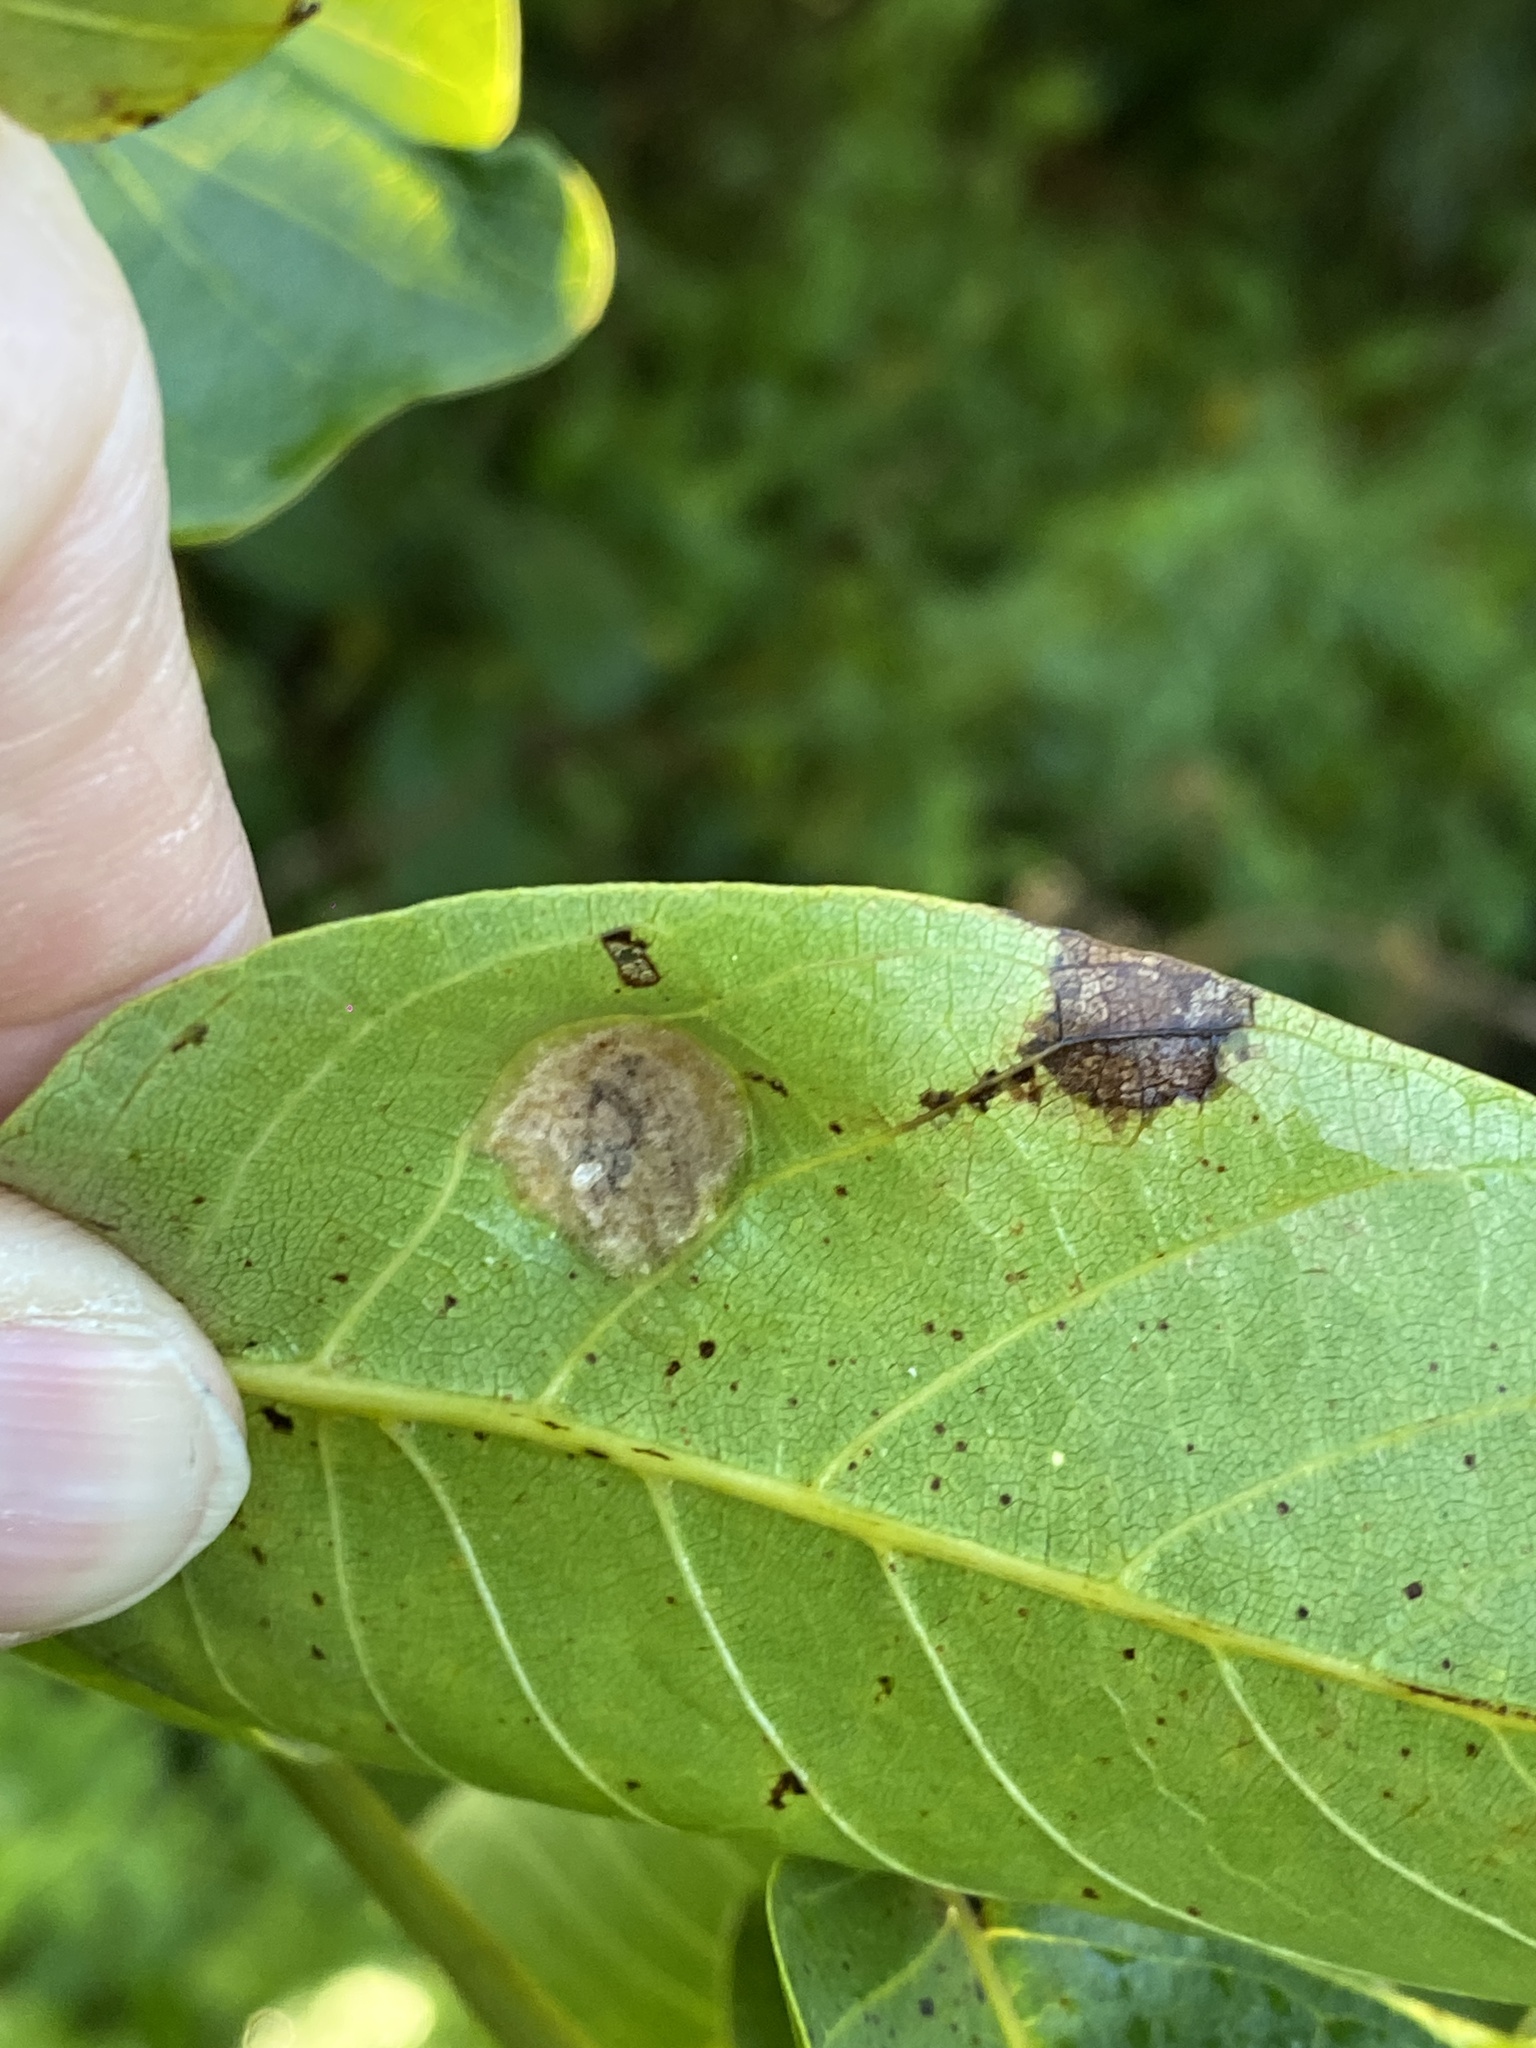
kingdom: Animalia
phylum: Arthropoda
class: Arachnida
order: Trombidiformes
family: Eriophyidae
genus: Aceria
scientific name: Aceria erinea
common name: Persian walnut erineum mite
